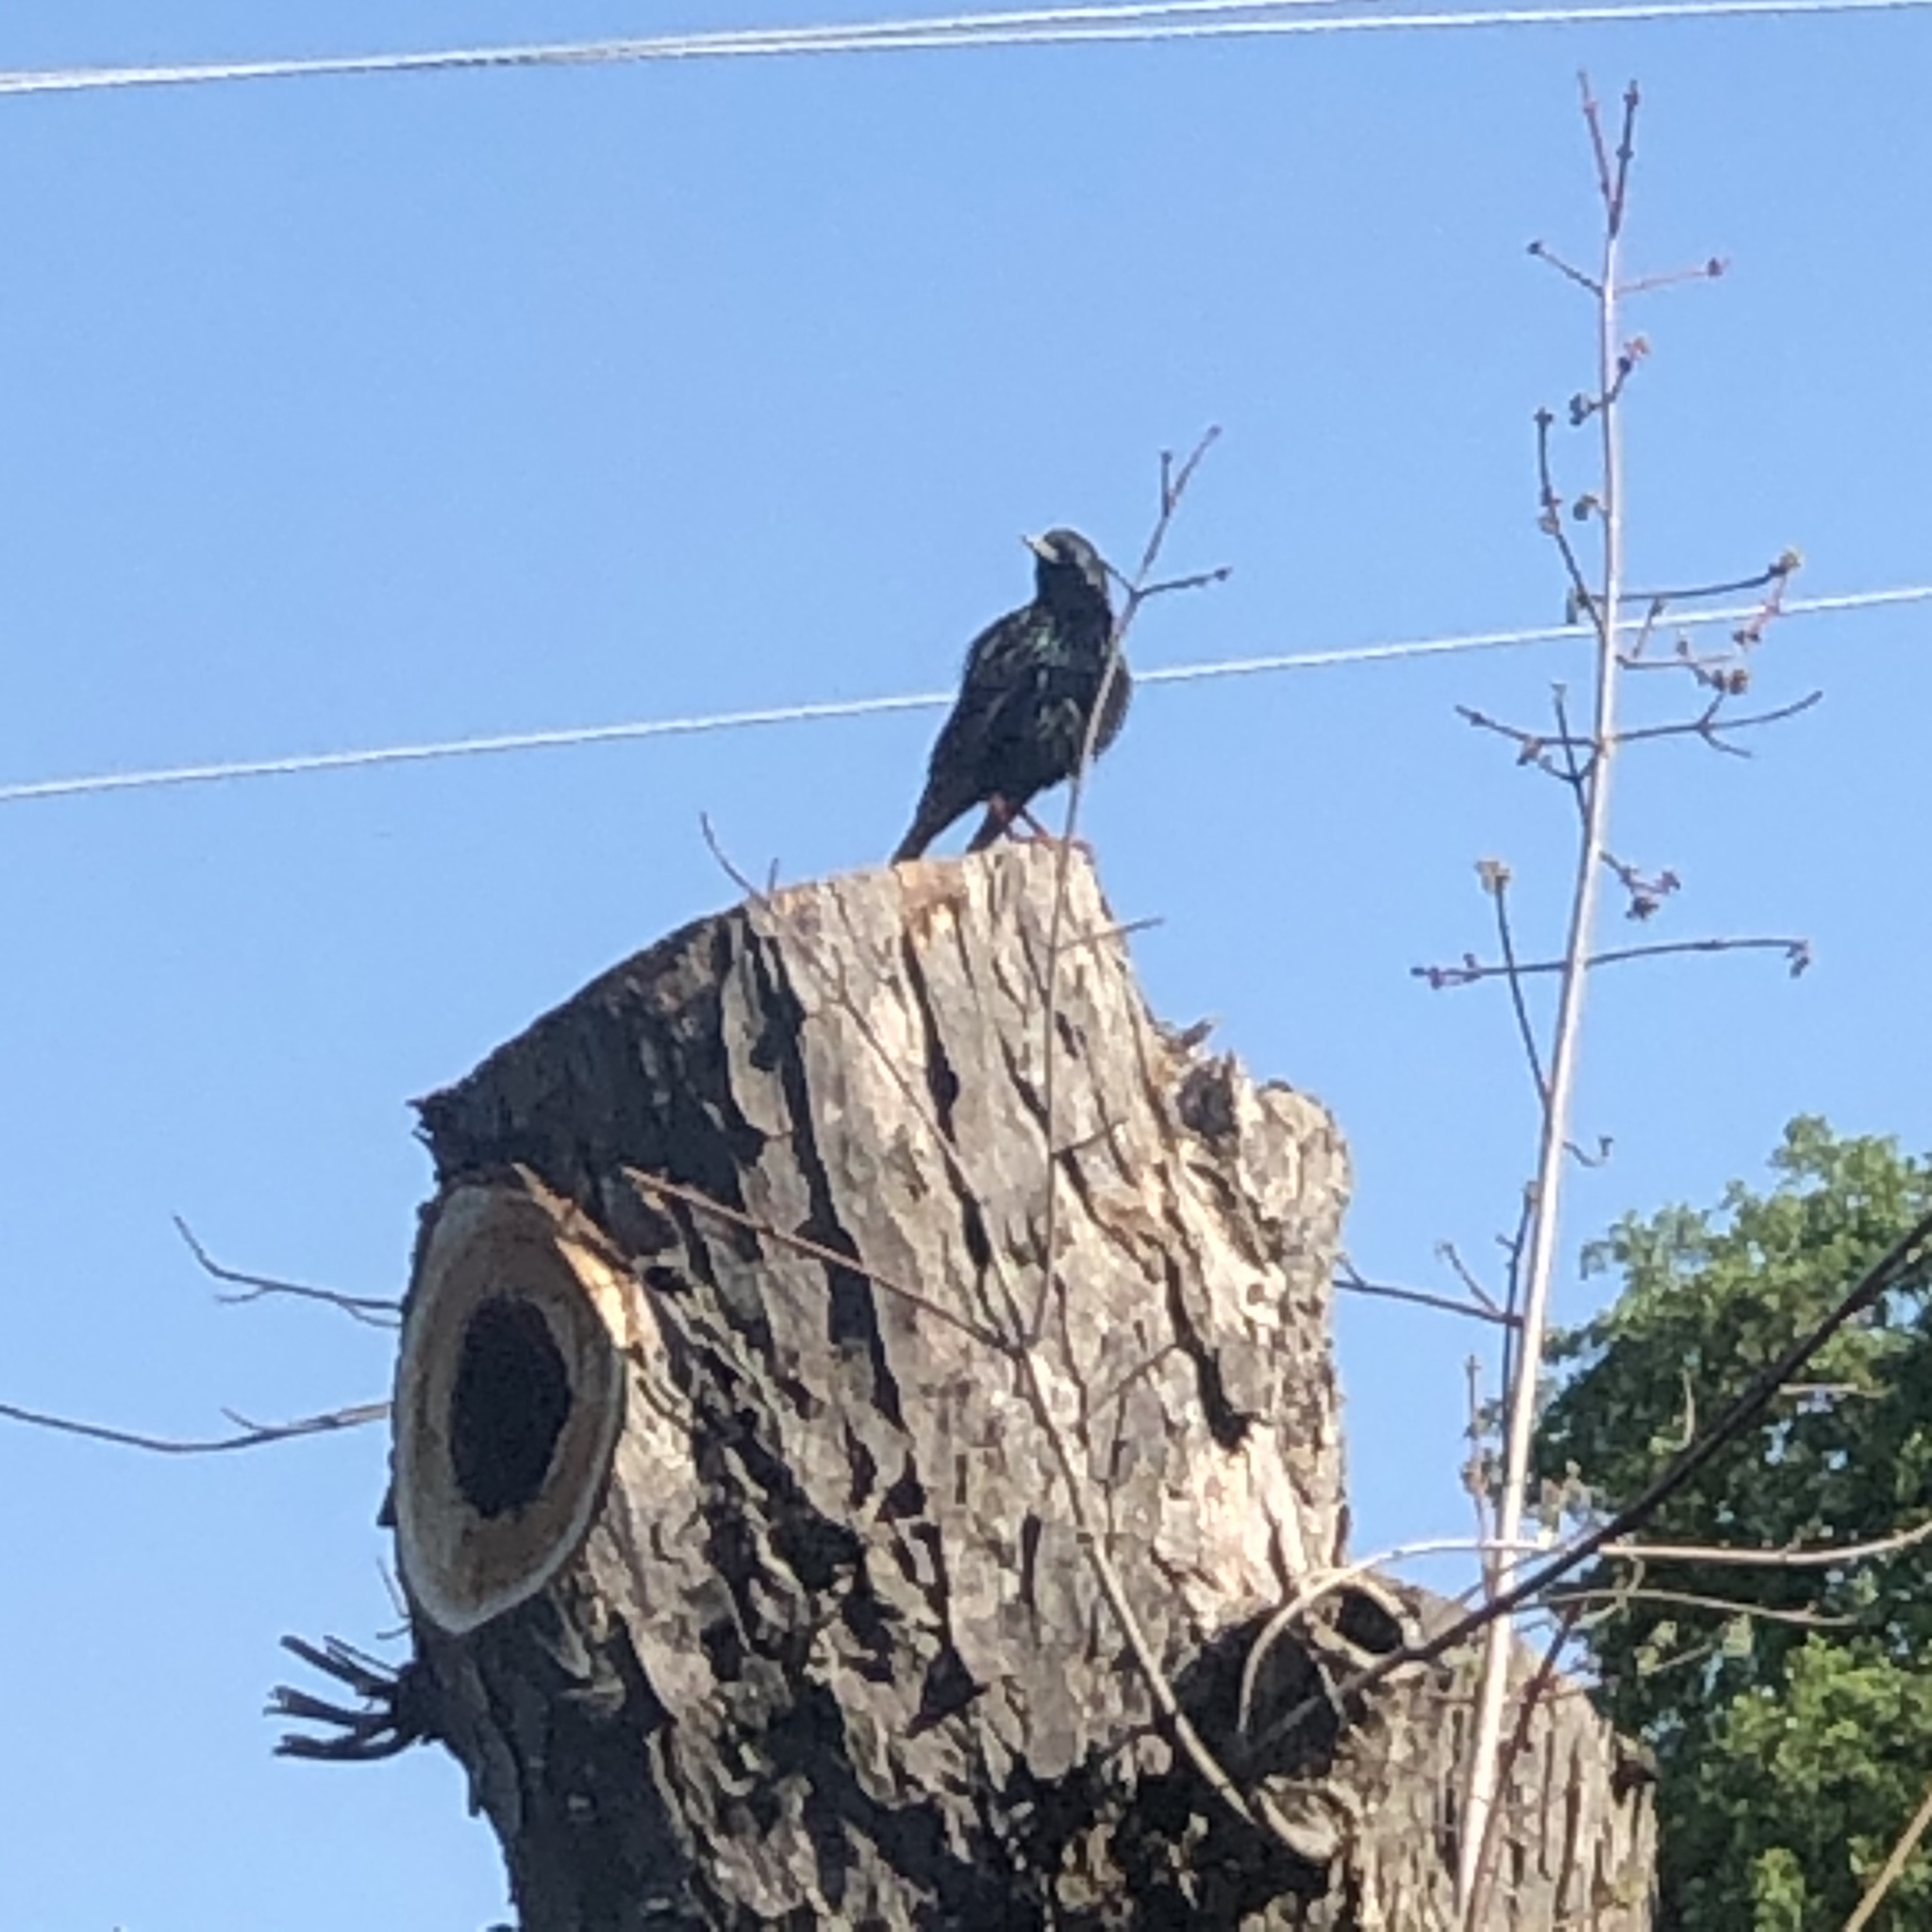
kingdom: Animalia
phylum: Chordata
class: Aves
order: Passeriformes
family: Sturnidae
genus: Sturnus
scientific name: Sturnus vulgaris
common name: Common starling
